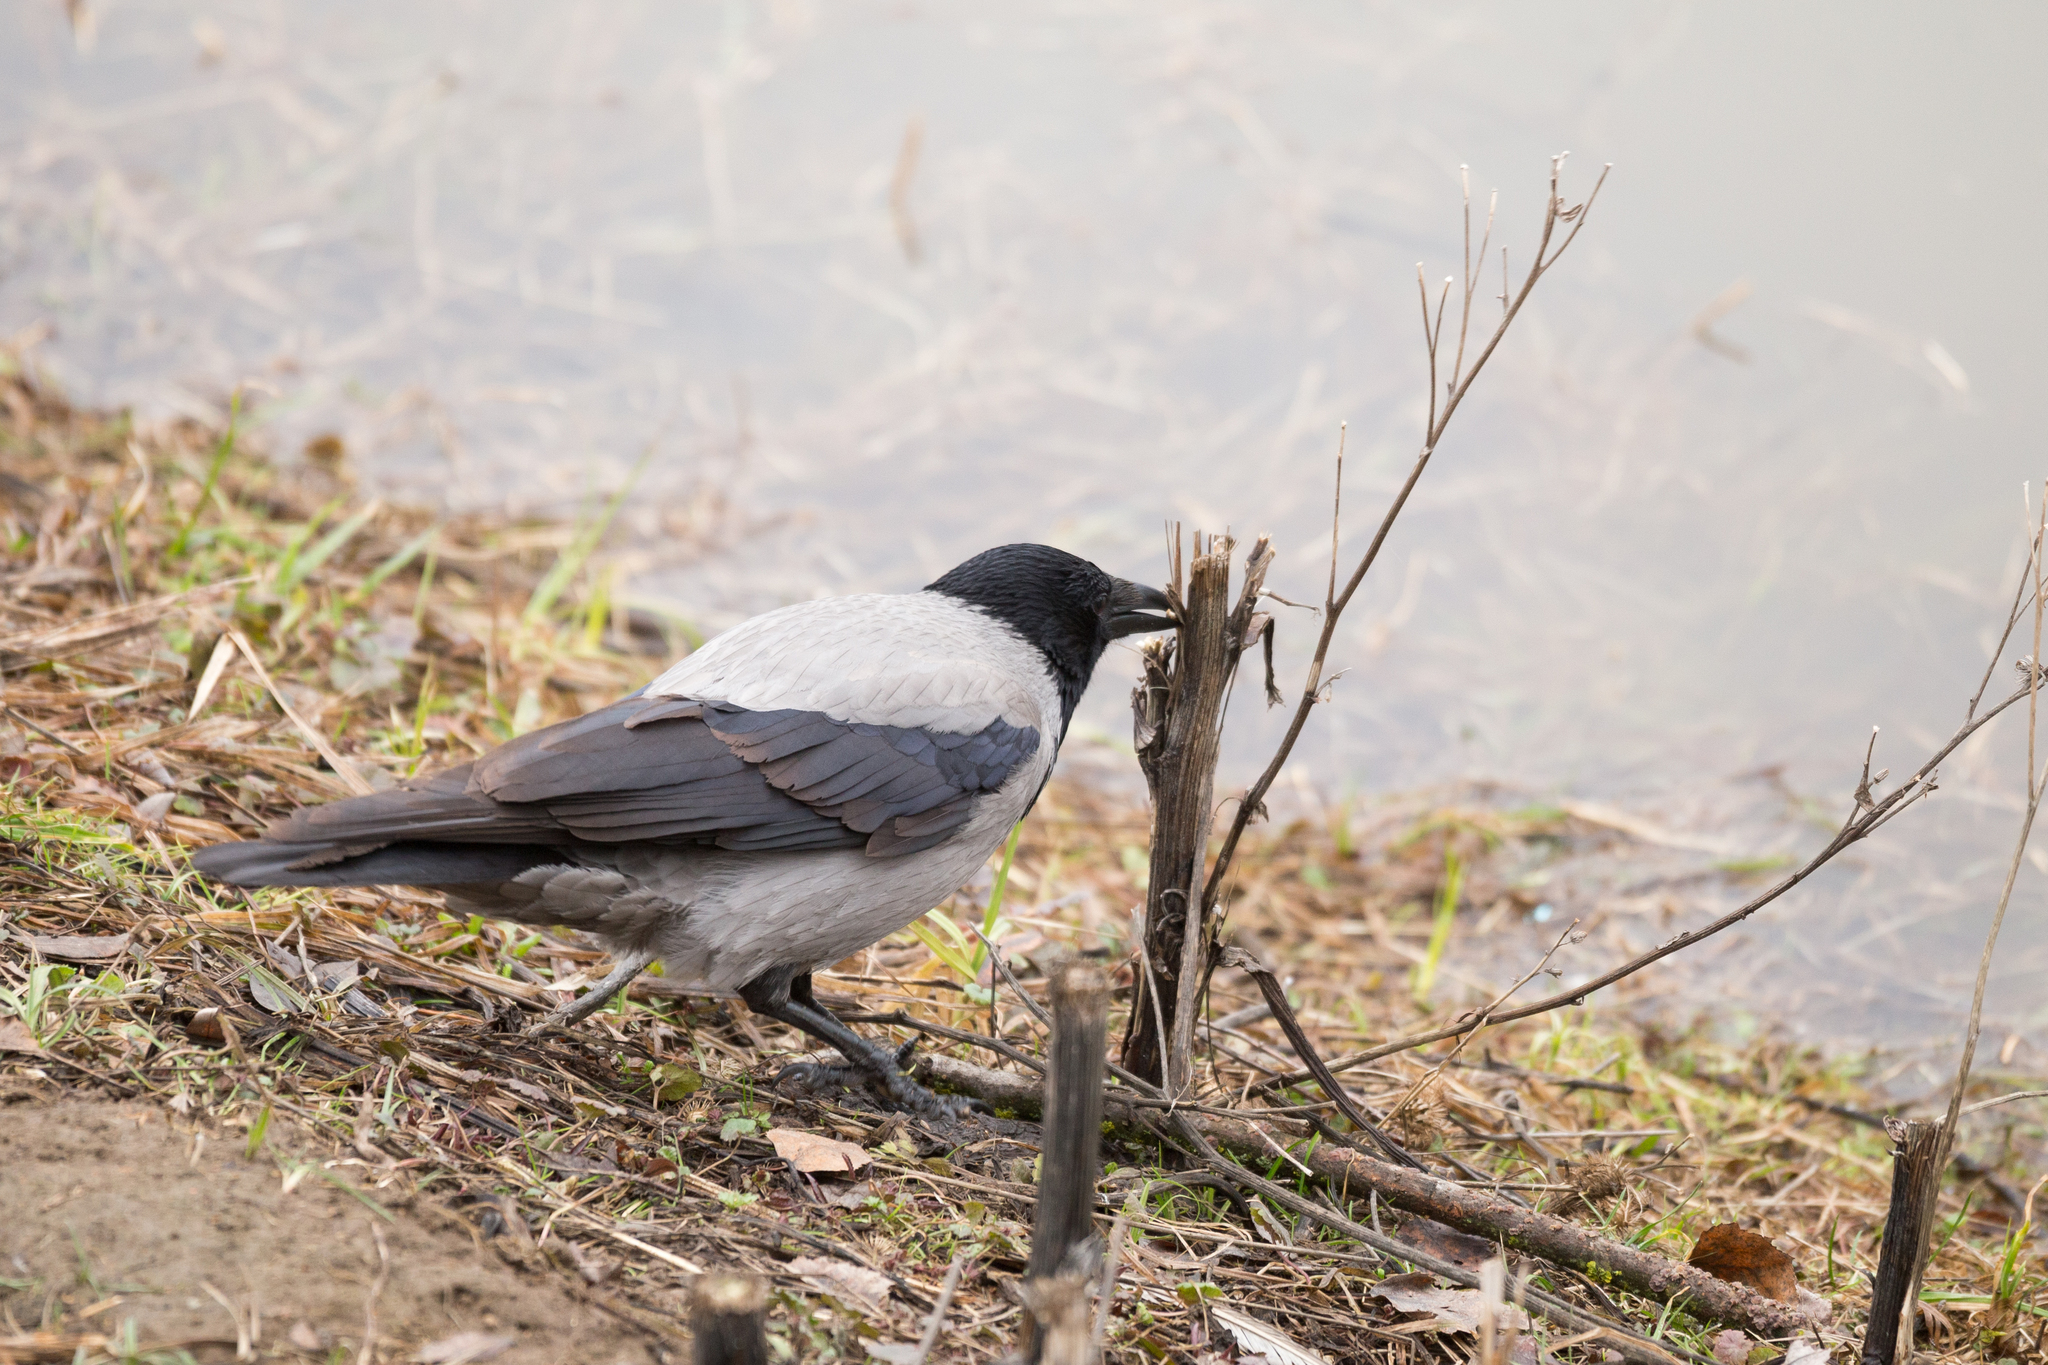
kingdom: Animalia
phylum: Chordata
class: Aves
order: Passeriformes
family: Corvidae
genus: Corvus
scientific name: Corvus cornix
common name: Hooded crow
